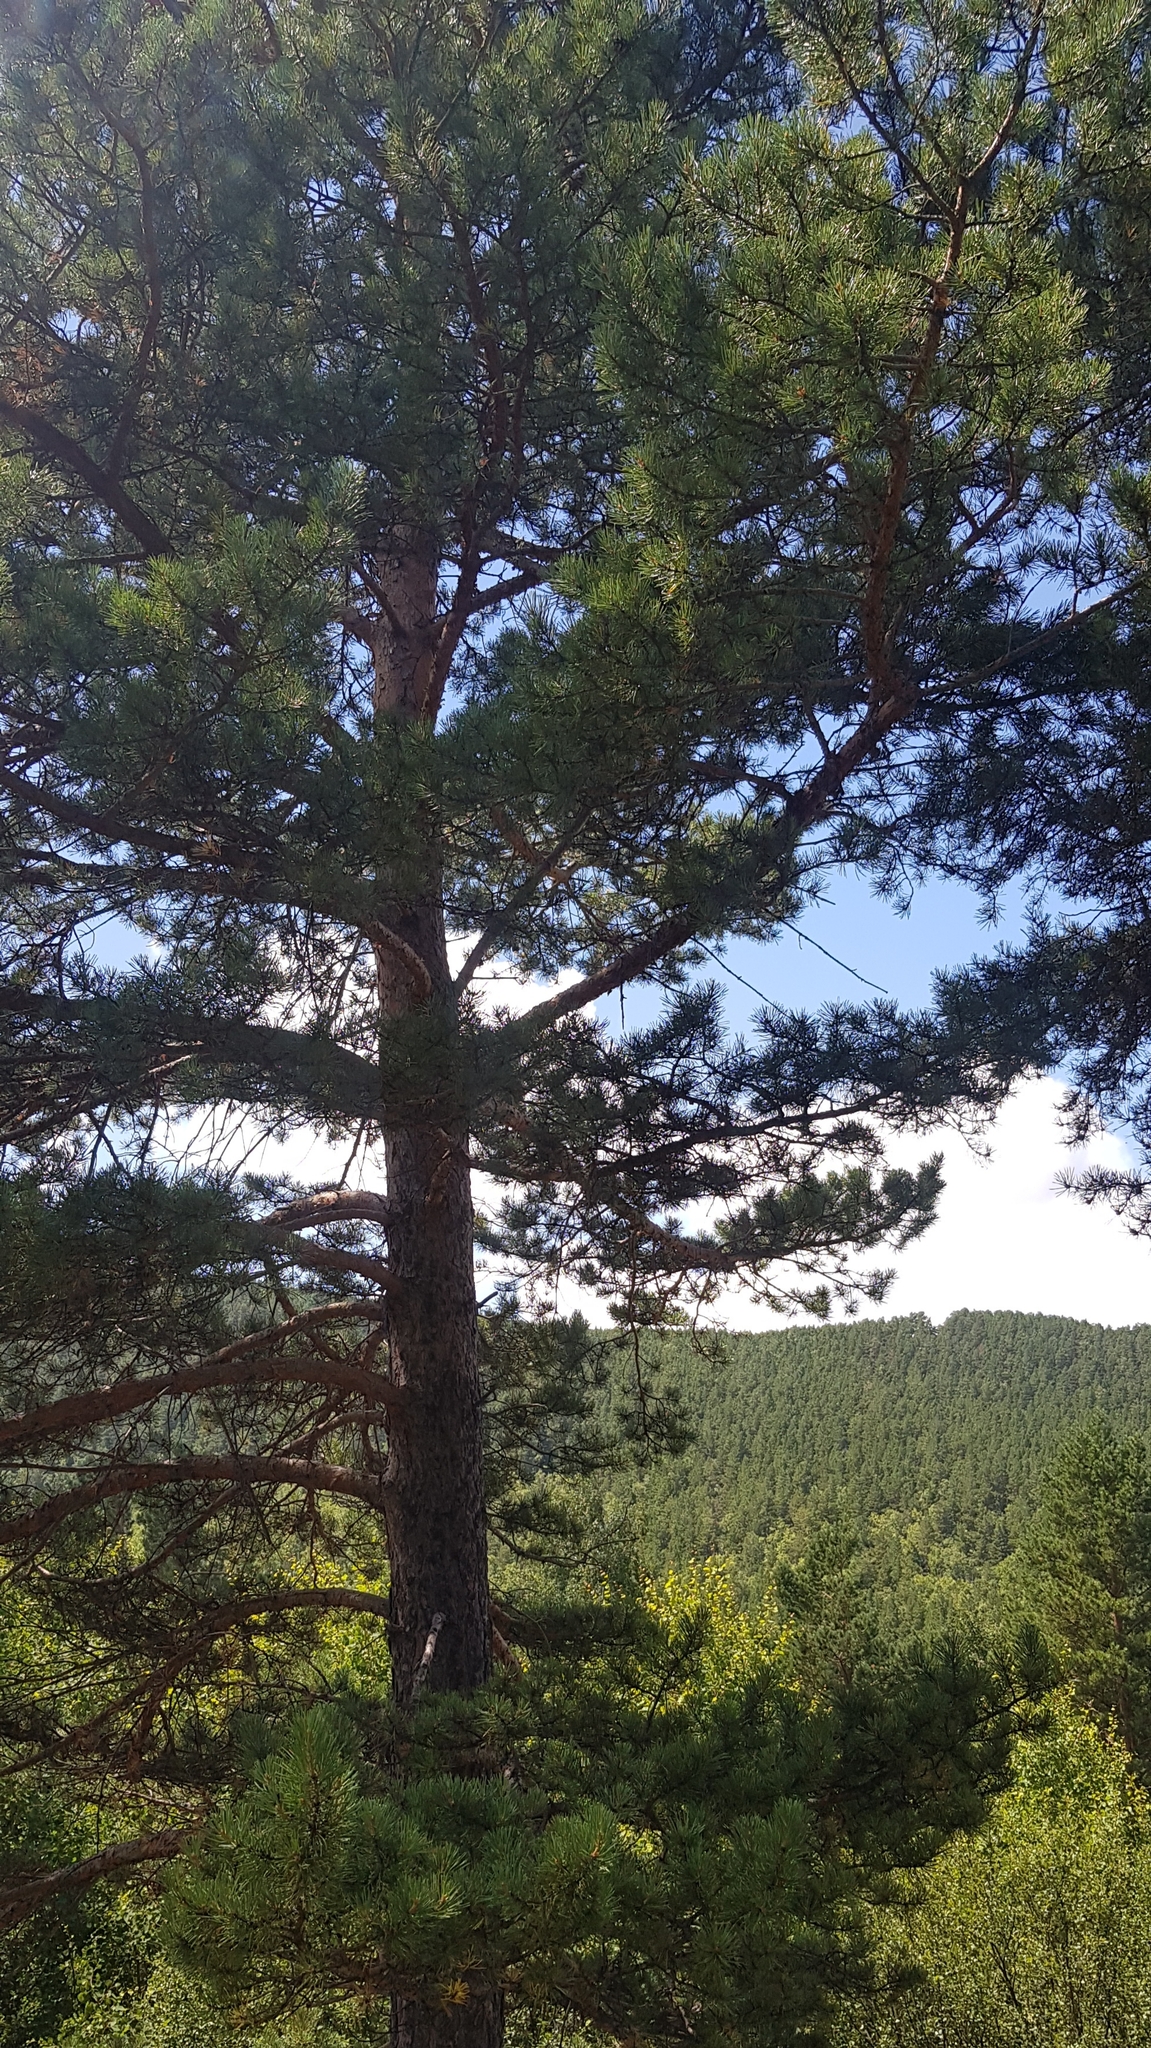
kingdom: Plantae
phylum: Tracheophyta
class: Pinopsida
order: Pinales
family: Pinaceae
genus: Pinus
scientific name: Pinus sylvestris
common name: Scots pine
